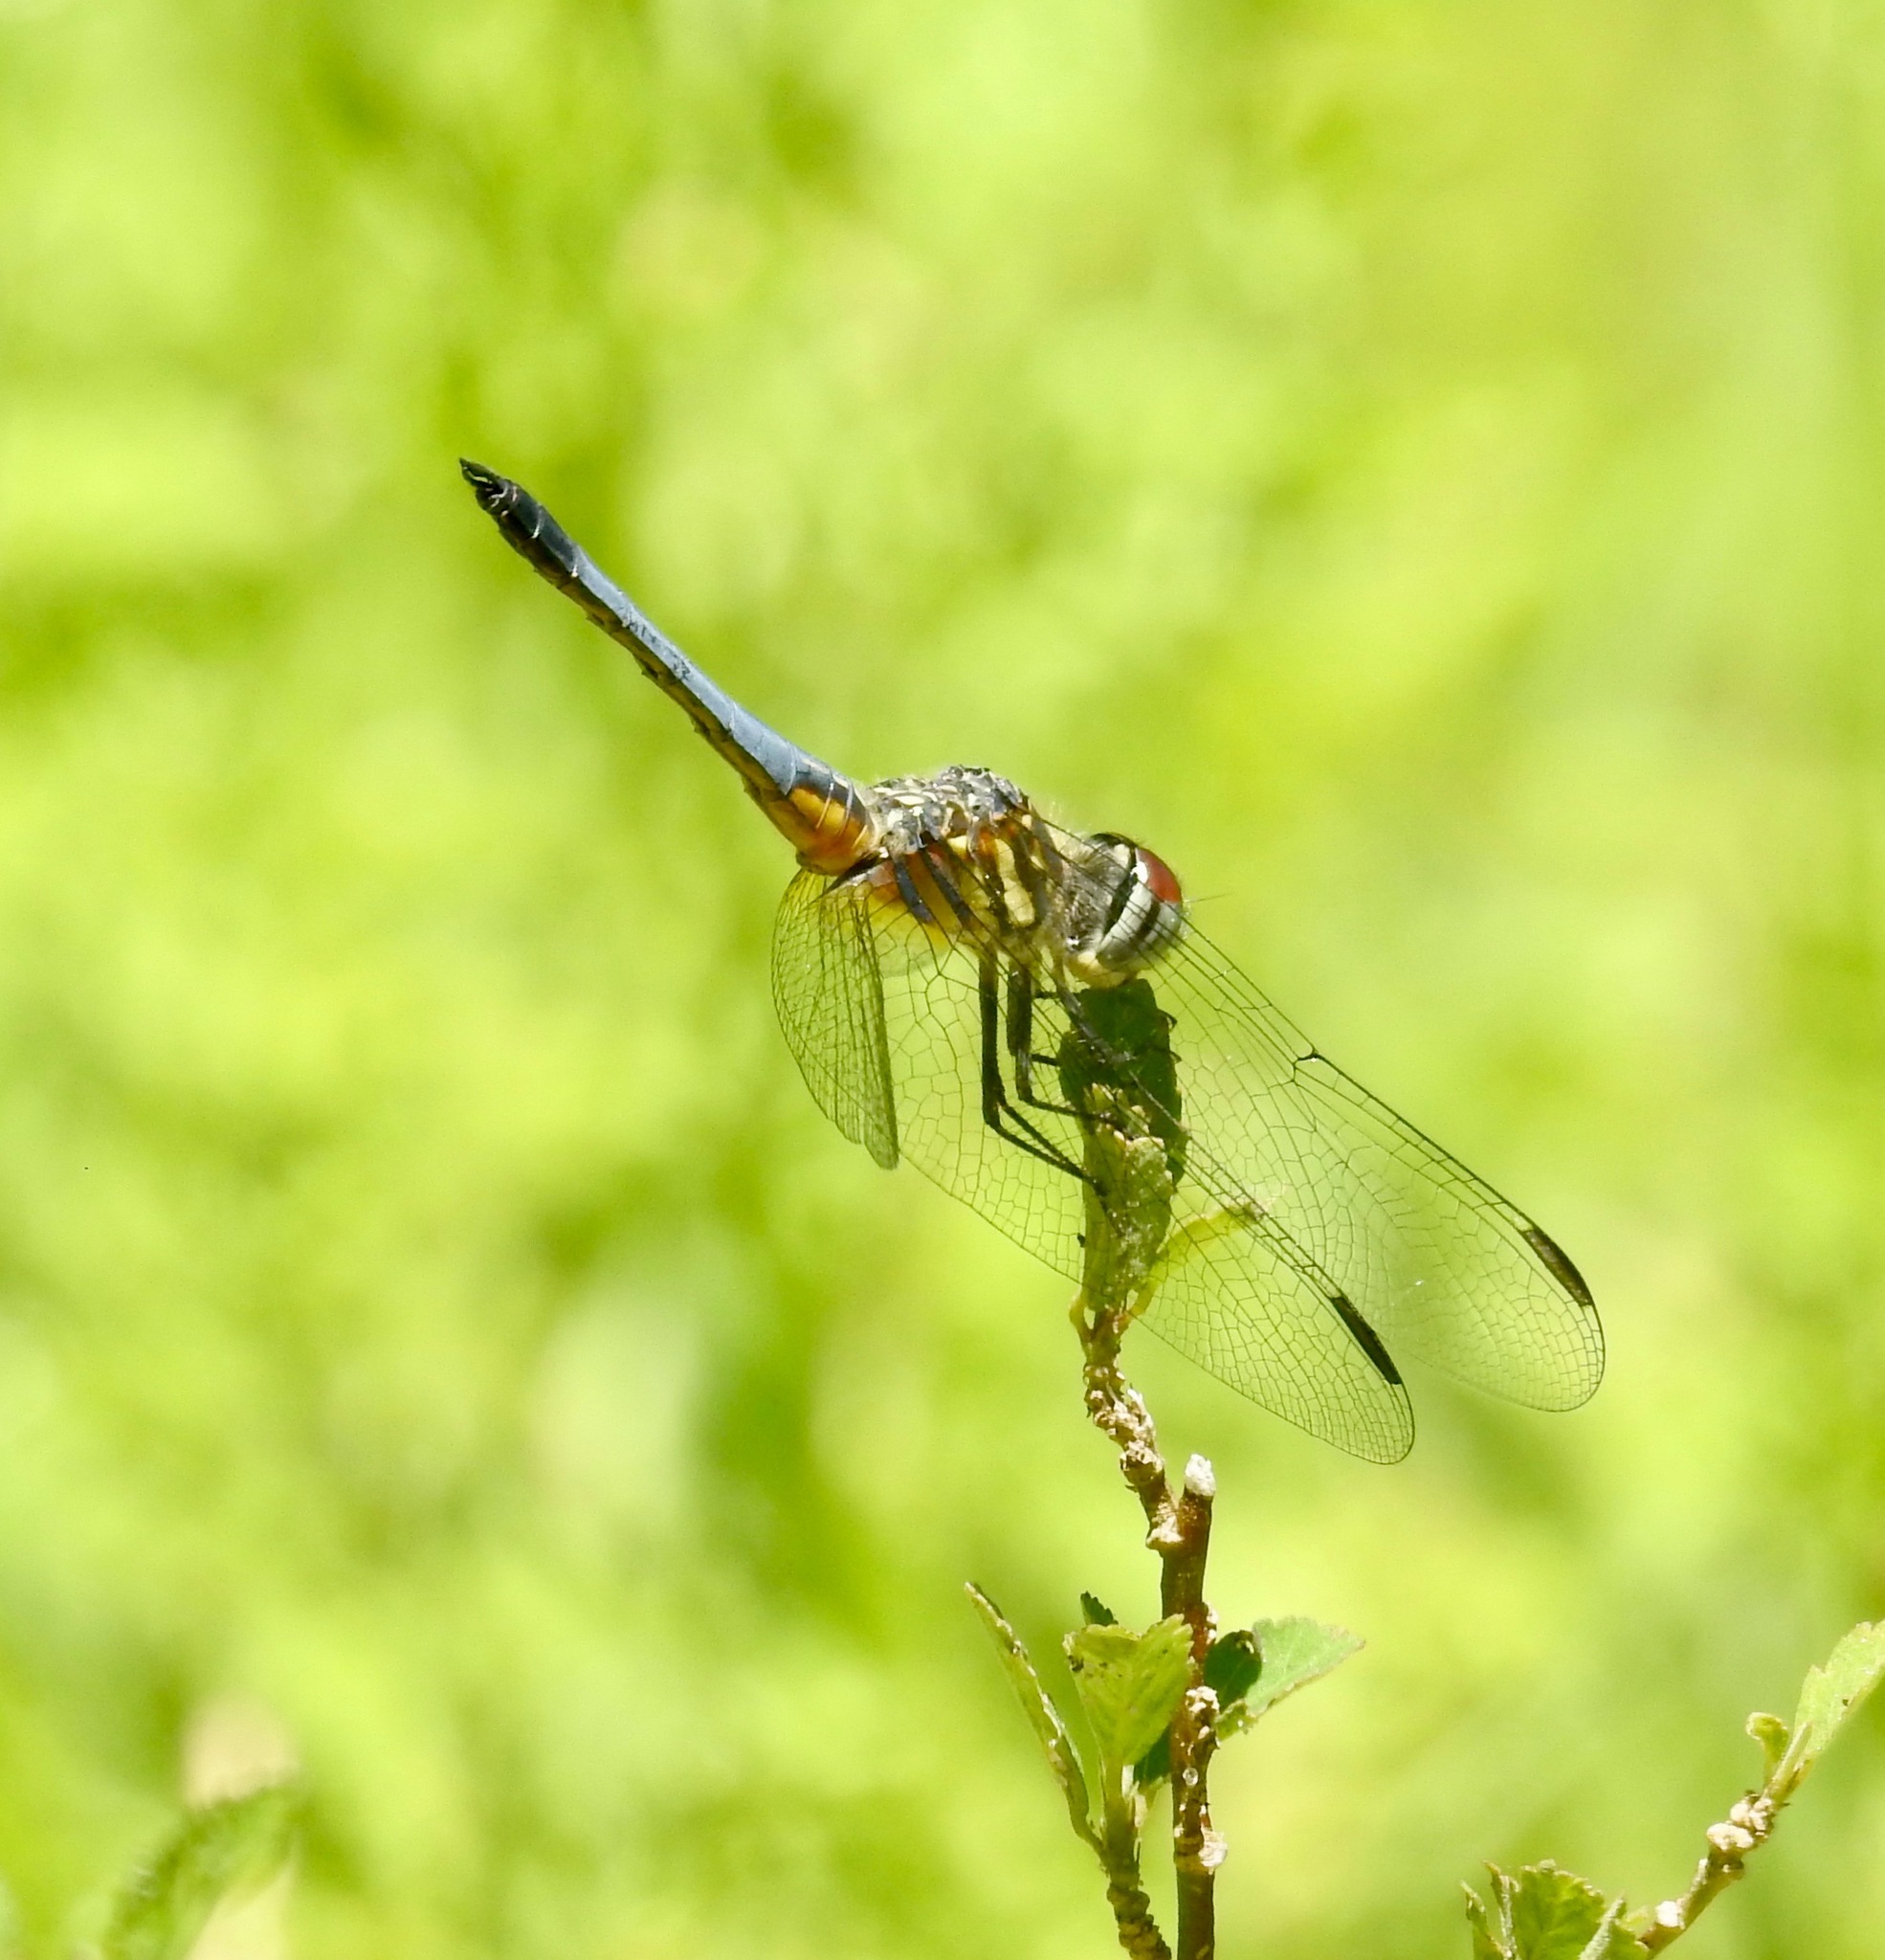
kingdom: Animalia
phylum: Arthropoda
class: Insecta
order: Odonata
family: Libellulidae
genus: Pachydiplax
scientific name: Pachydiplax longipennis
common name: Blue dasher
